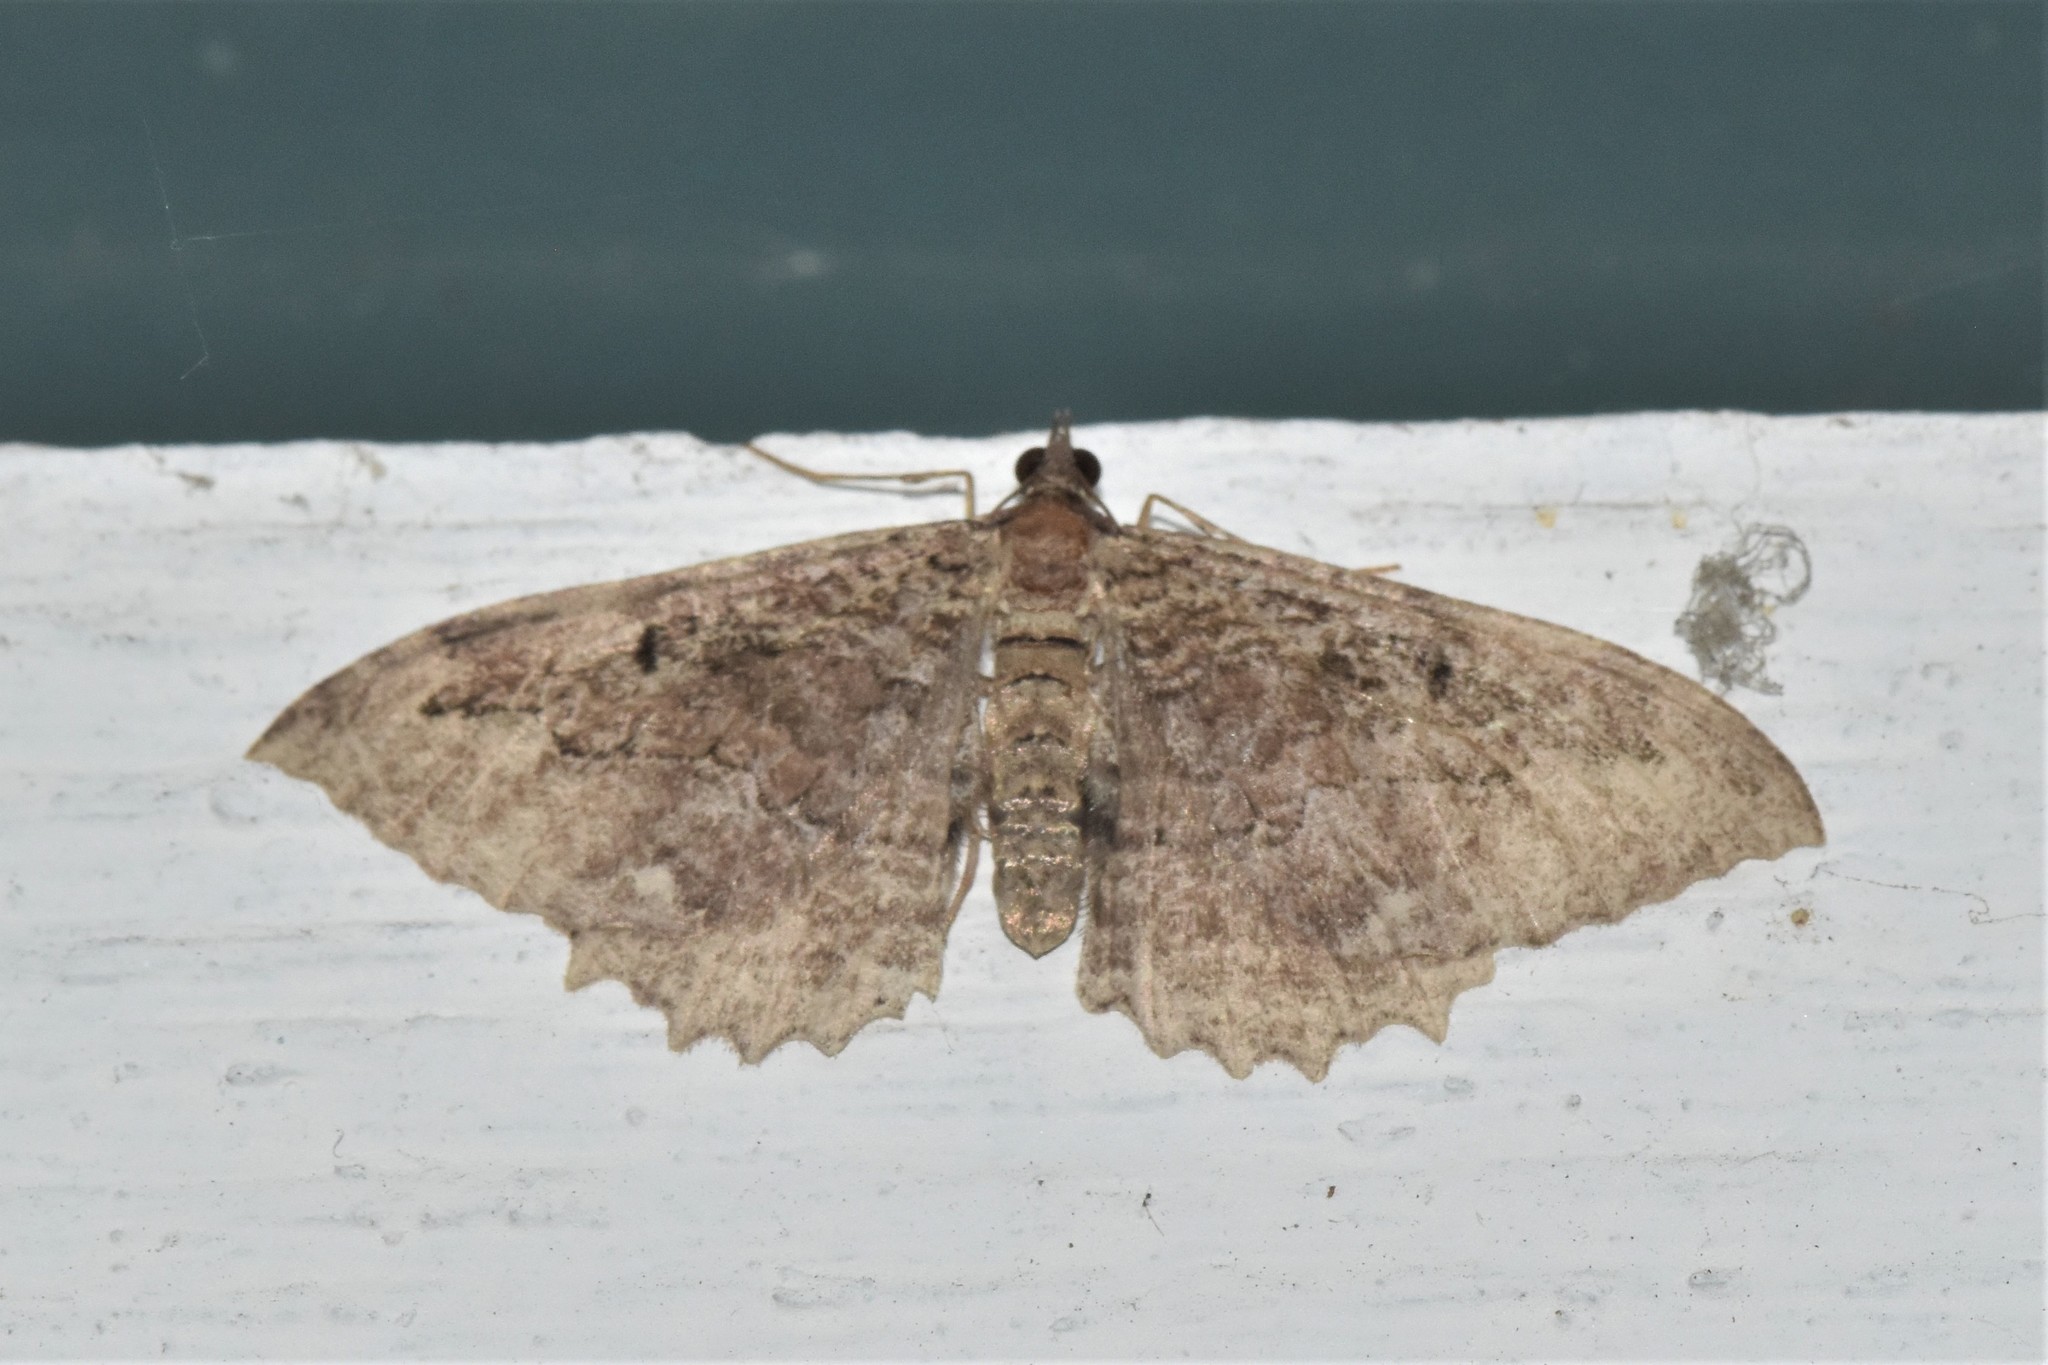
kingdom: Animalia
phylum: Arthropoda
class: Insecta
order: Lepidoptera
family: Geometridae
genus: Rheumaptera
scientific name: Rheumaptera
